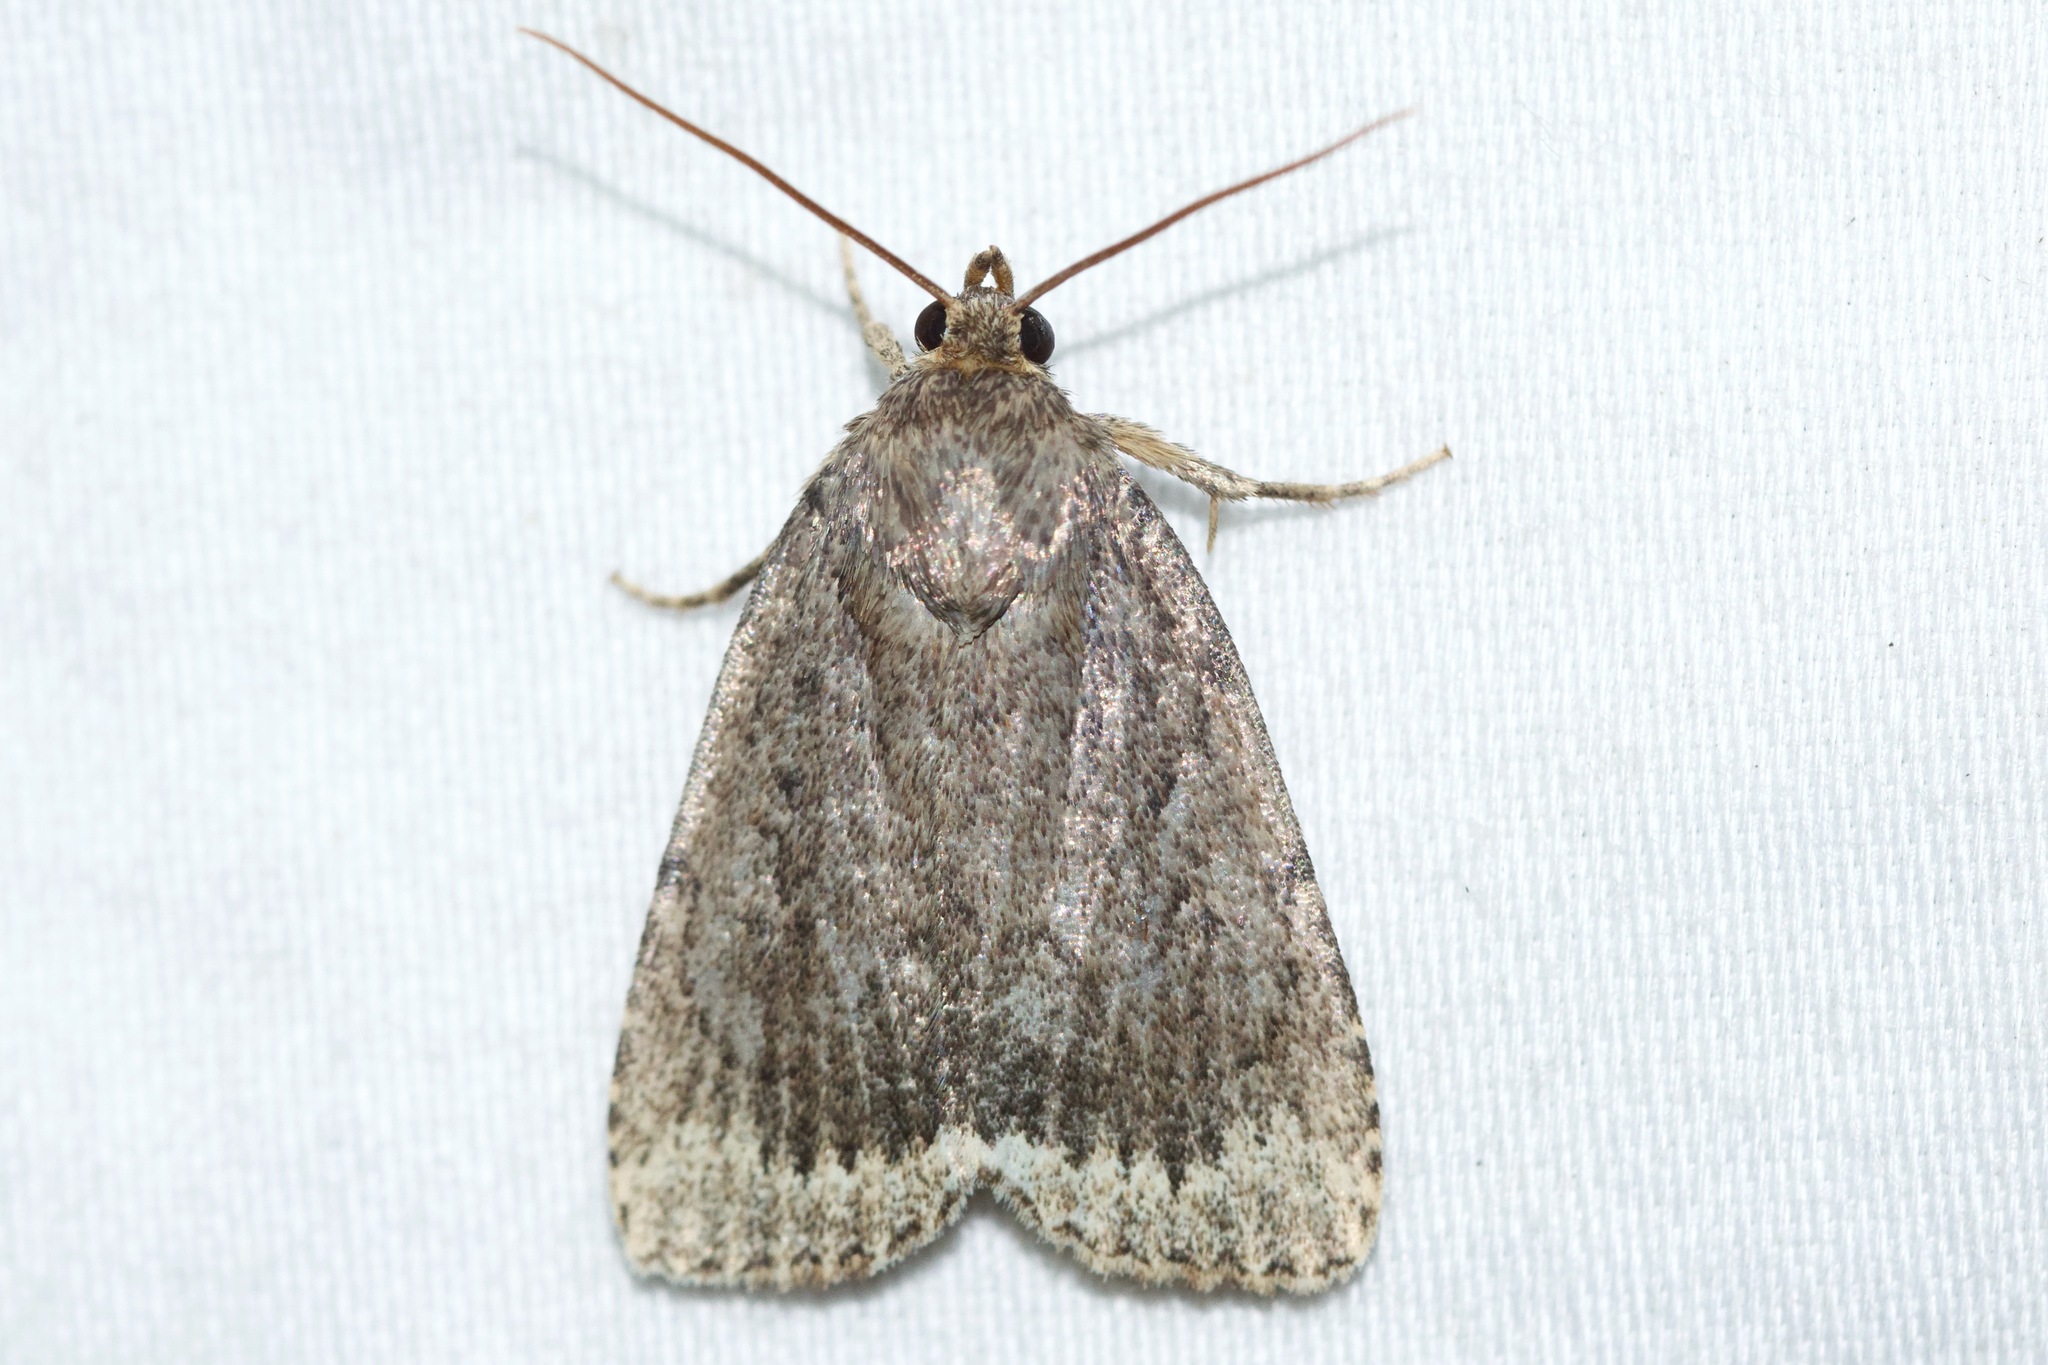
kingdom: Animalia
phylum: Arthropoda
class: Insecta
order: Lepidoptera
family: Noctuidae
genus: Amphipyra
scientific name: Amphipyra glabella
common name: Smooth amphipyra moth
